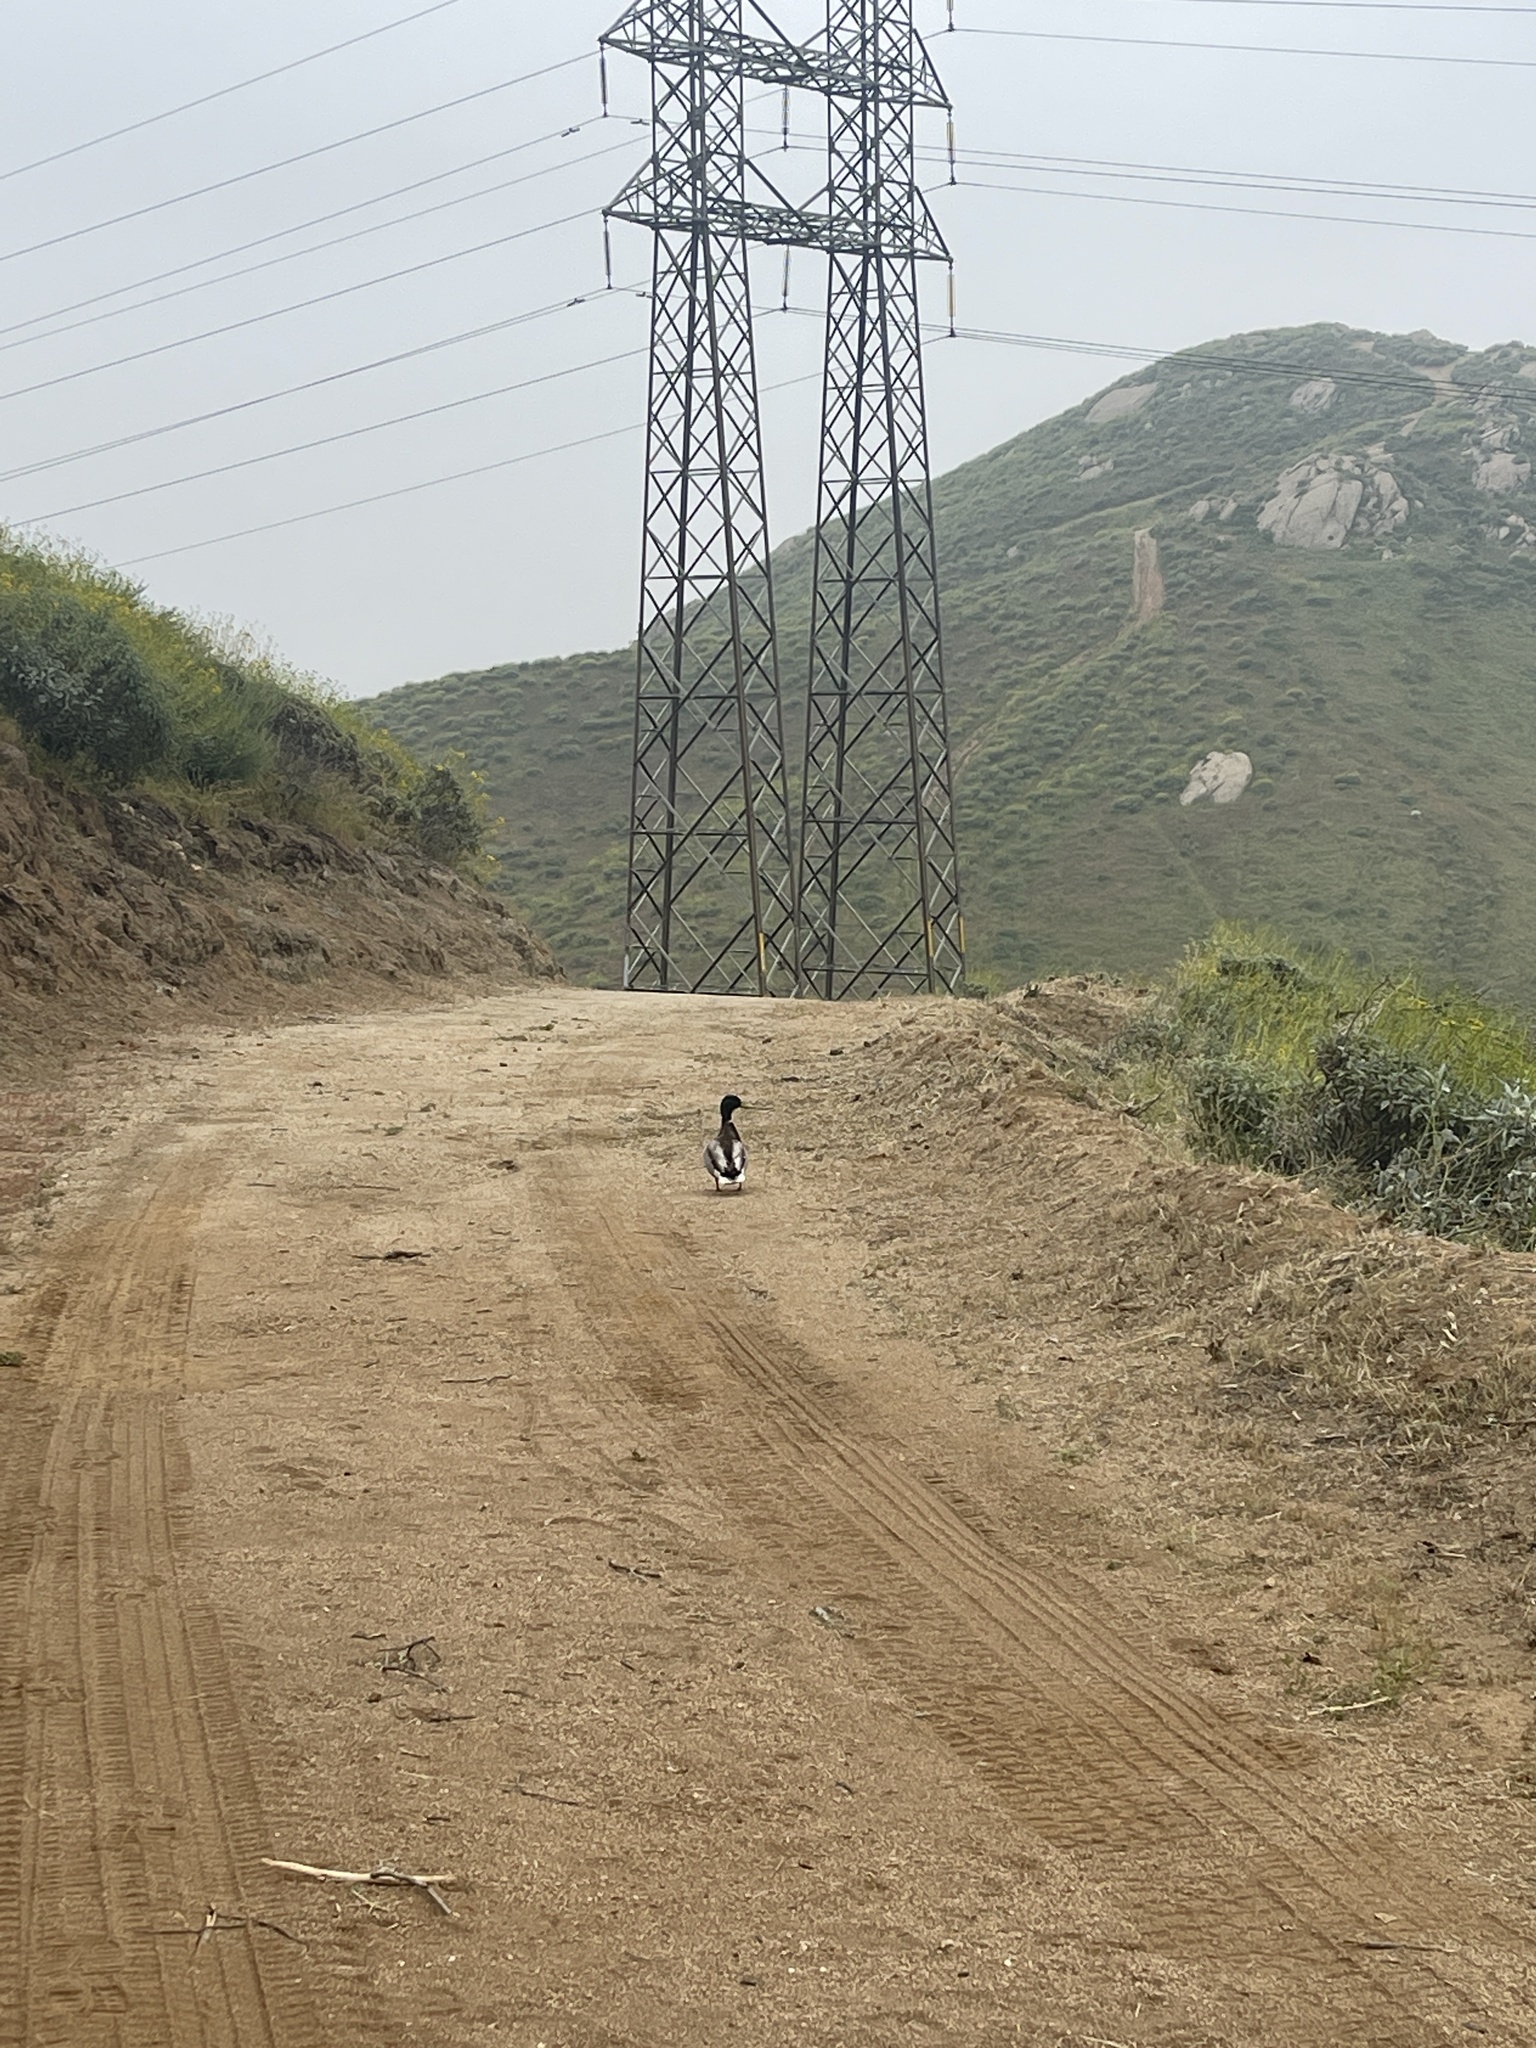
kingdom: Animalia
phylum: Chordata
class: Aves
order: Anseriformes
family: Anatidae
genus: Anas
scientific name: Anas platyrhynchos
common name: Mallard
